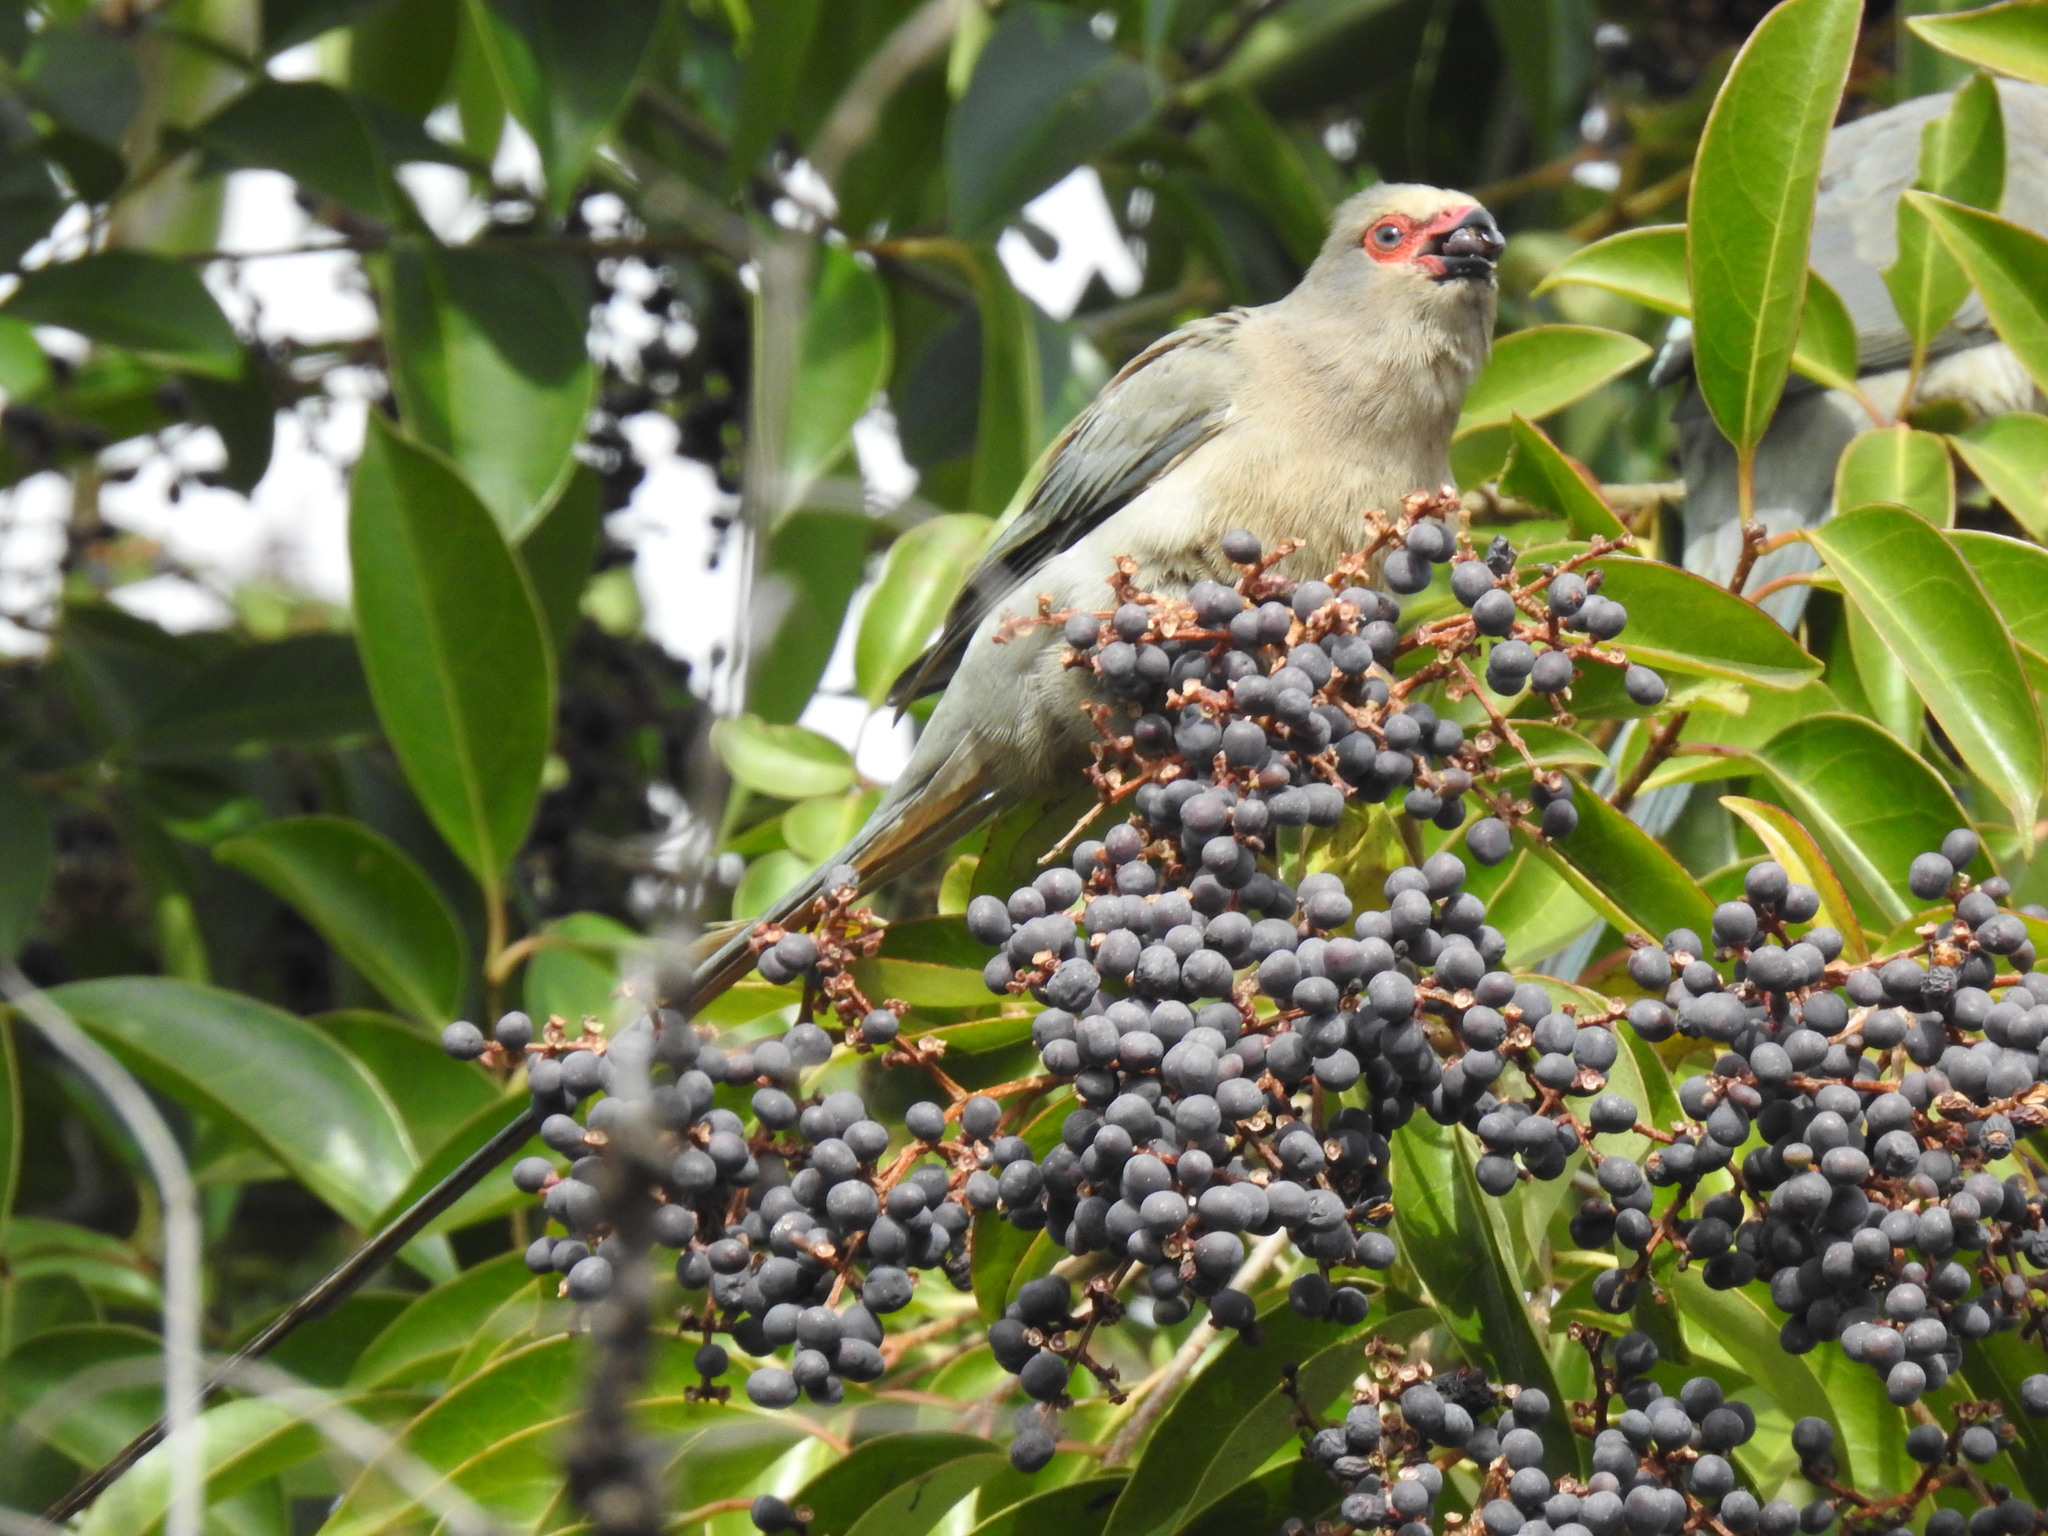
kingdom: Animalia
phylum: Chordata
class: Aves
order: Coliiformes
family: Coliidae
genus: Urocolius
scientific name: Urocolius indicus
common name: Red-faced mousebird
